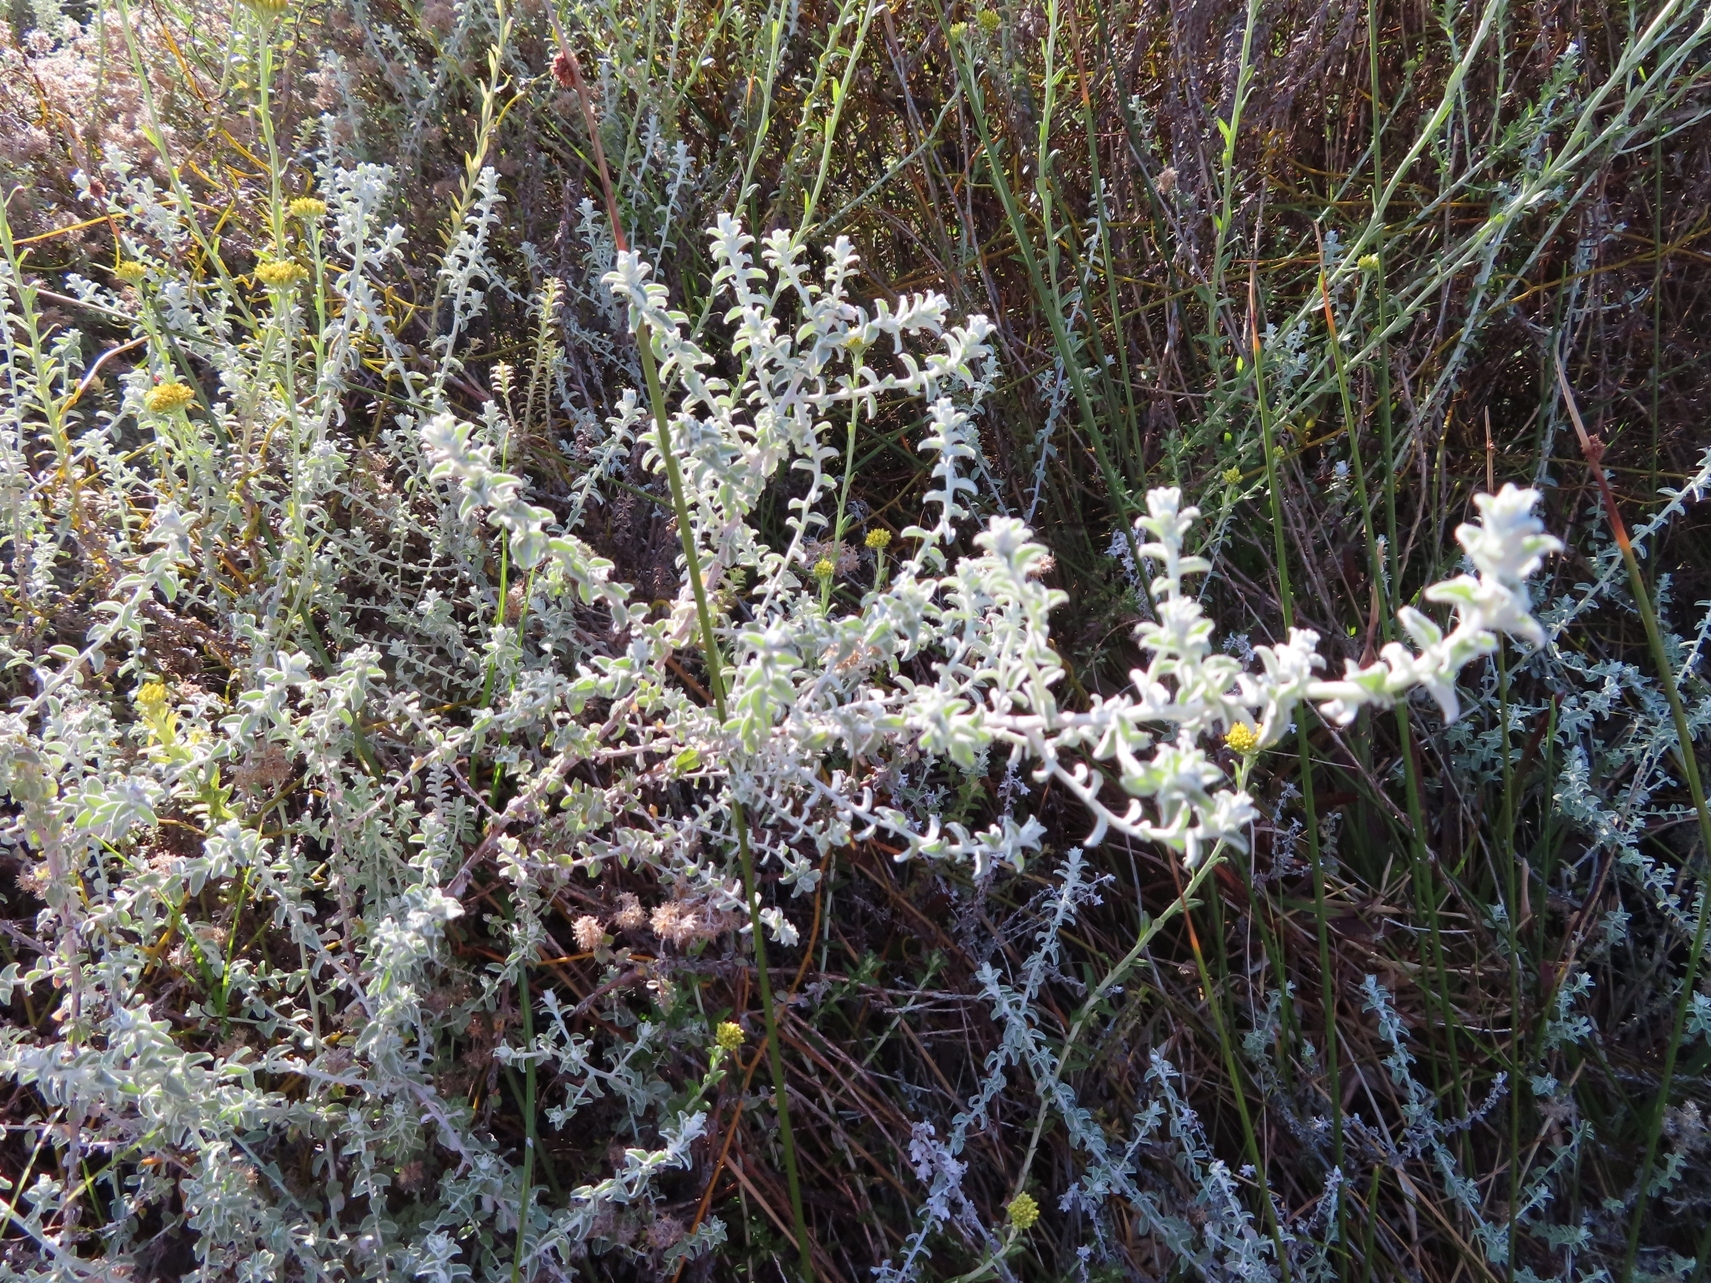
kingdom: Plantae
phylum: Tracheophyta
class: Magnoliopsida
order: Asterales
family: Asteraceae
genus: Helichrysum
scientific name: Helichrysum cymosum
